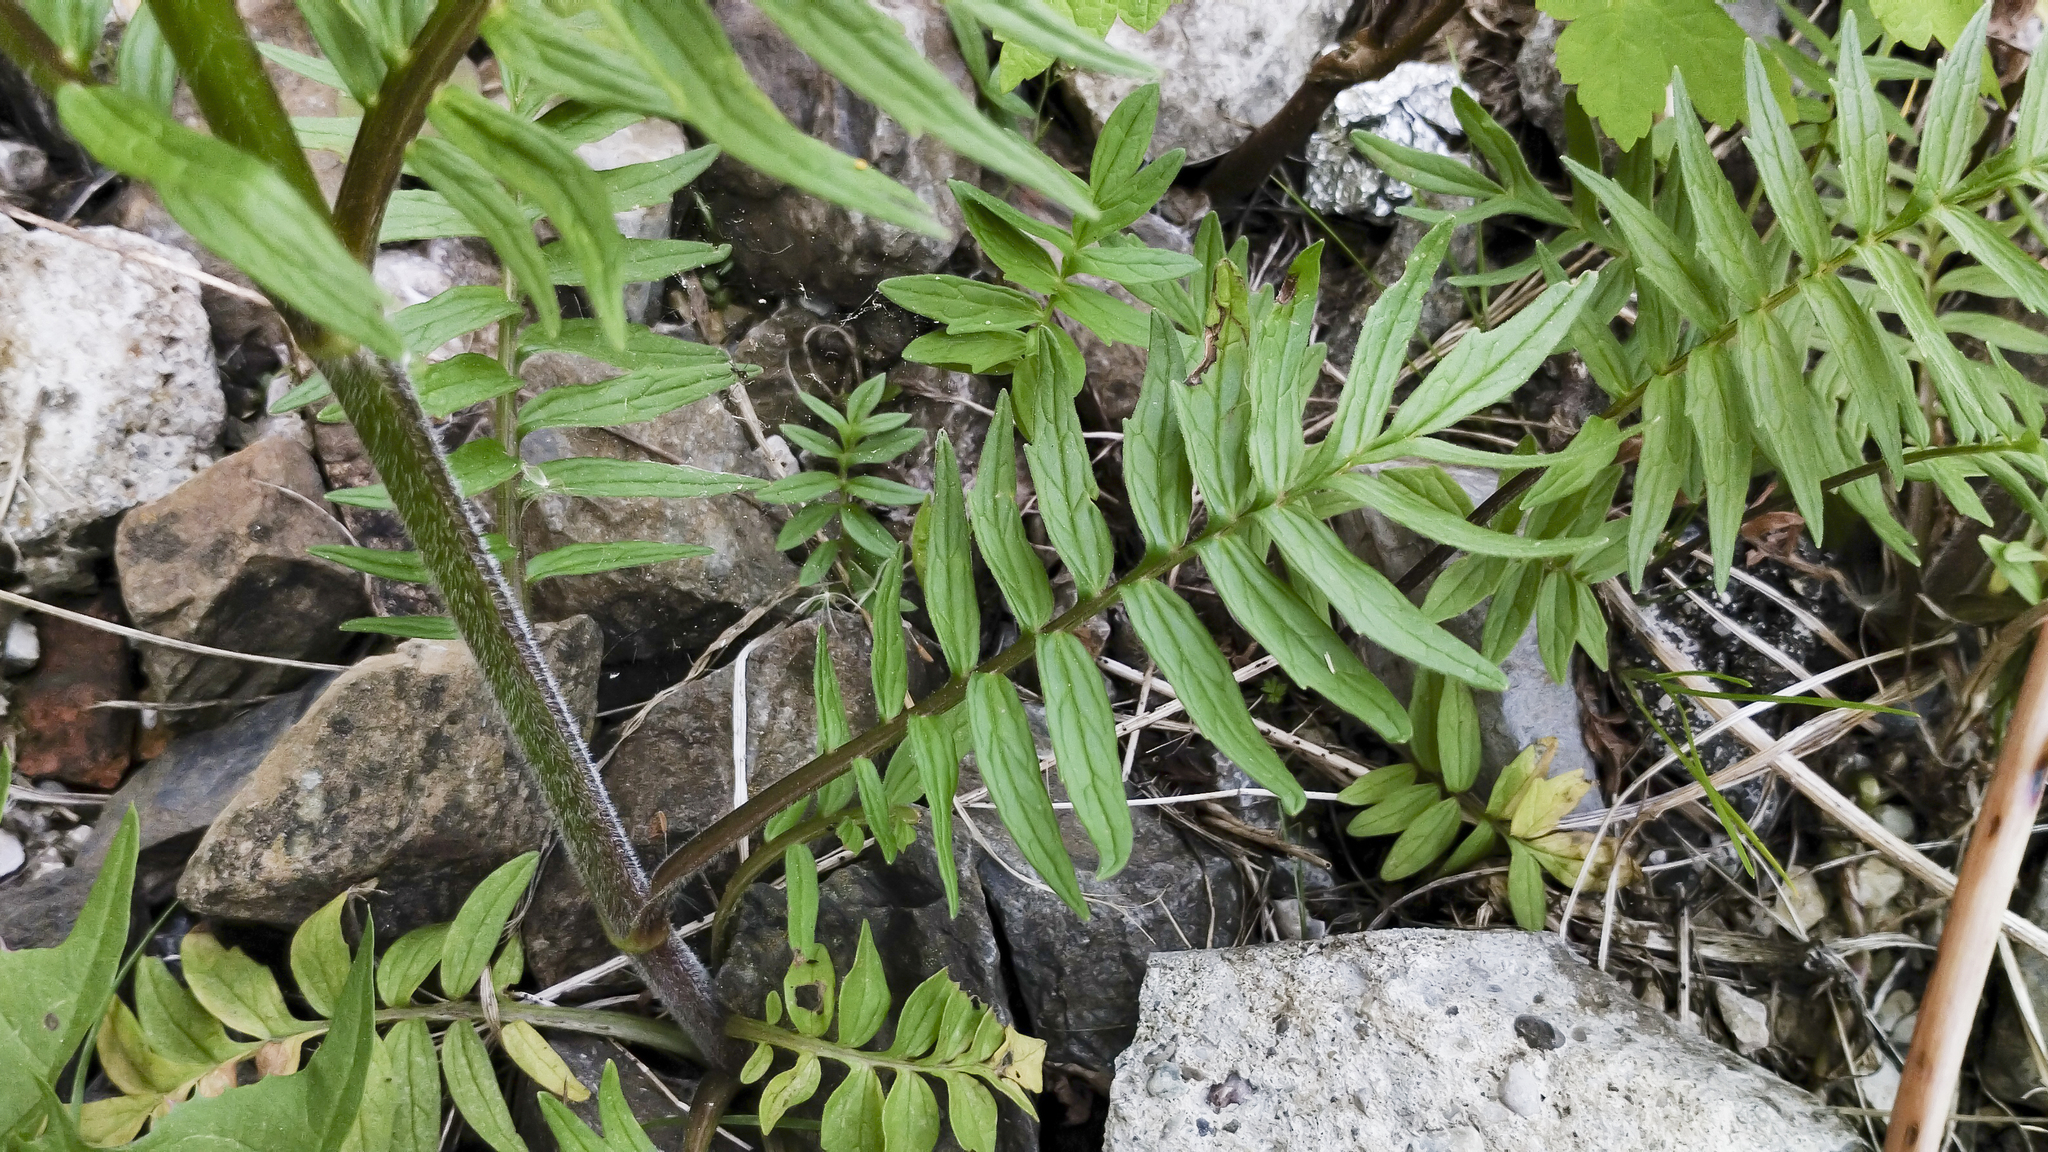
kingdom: Plantae
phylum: Tracheophyta
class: Magnoliopsida
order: Dipsacales
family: Caprifoliaceae
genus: Valeriana
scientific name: Valeriana pratensis
